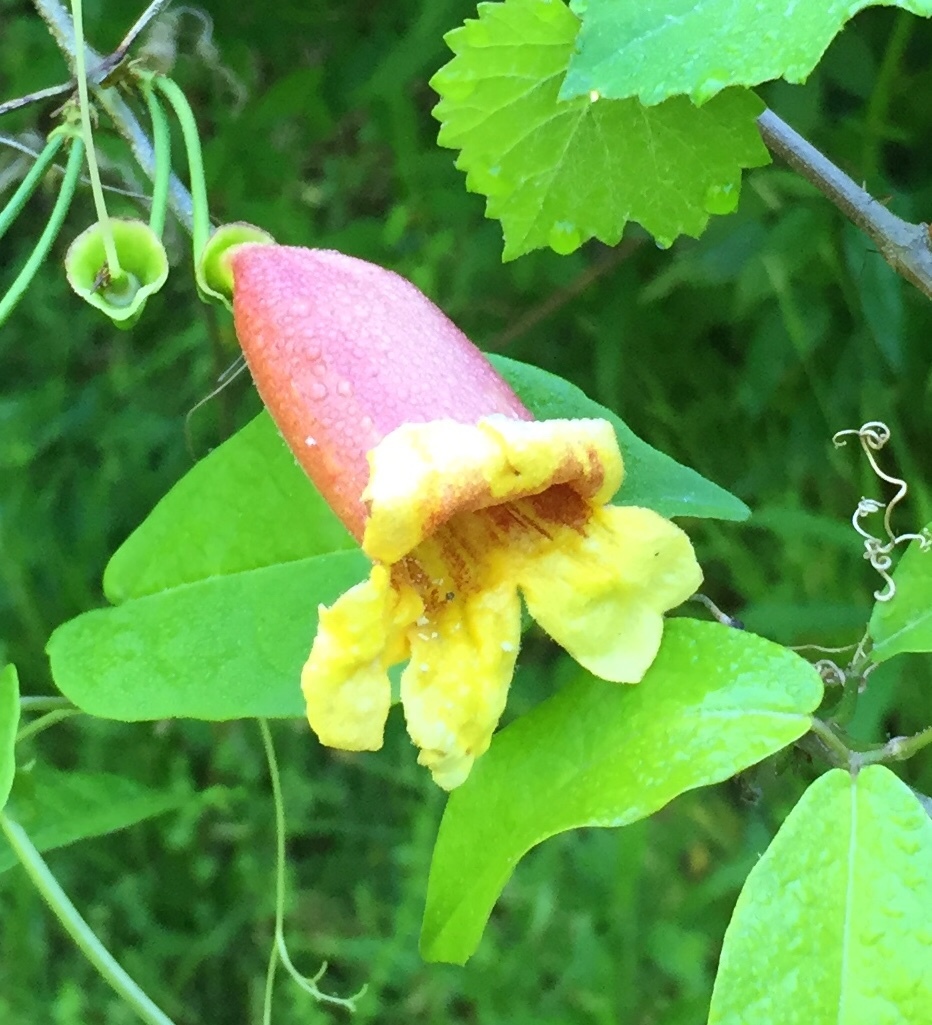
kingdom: Plantae
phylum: Tracheophyta
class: Magnoliopsida
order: Lamiales
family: Bignoniaceae
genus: Bignonia
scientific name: Bignonia capreolata
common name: Crossvine
